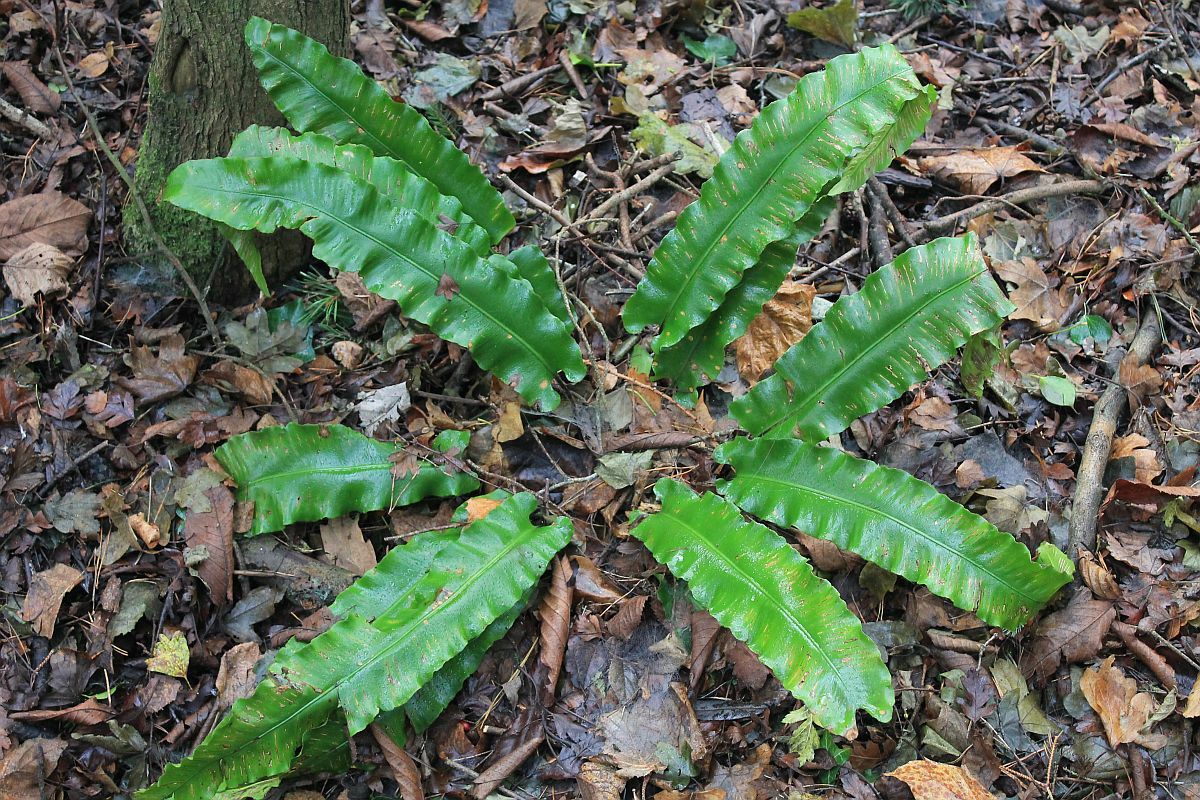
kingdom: Plantae
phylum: Tracheophyta
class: Polypodiopsida
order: Polypodiales
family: Aspleniaceae
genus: Asplenium
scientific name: Asplenium scolopendrium
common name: Hart's-tongue fern
